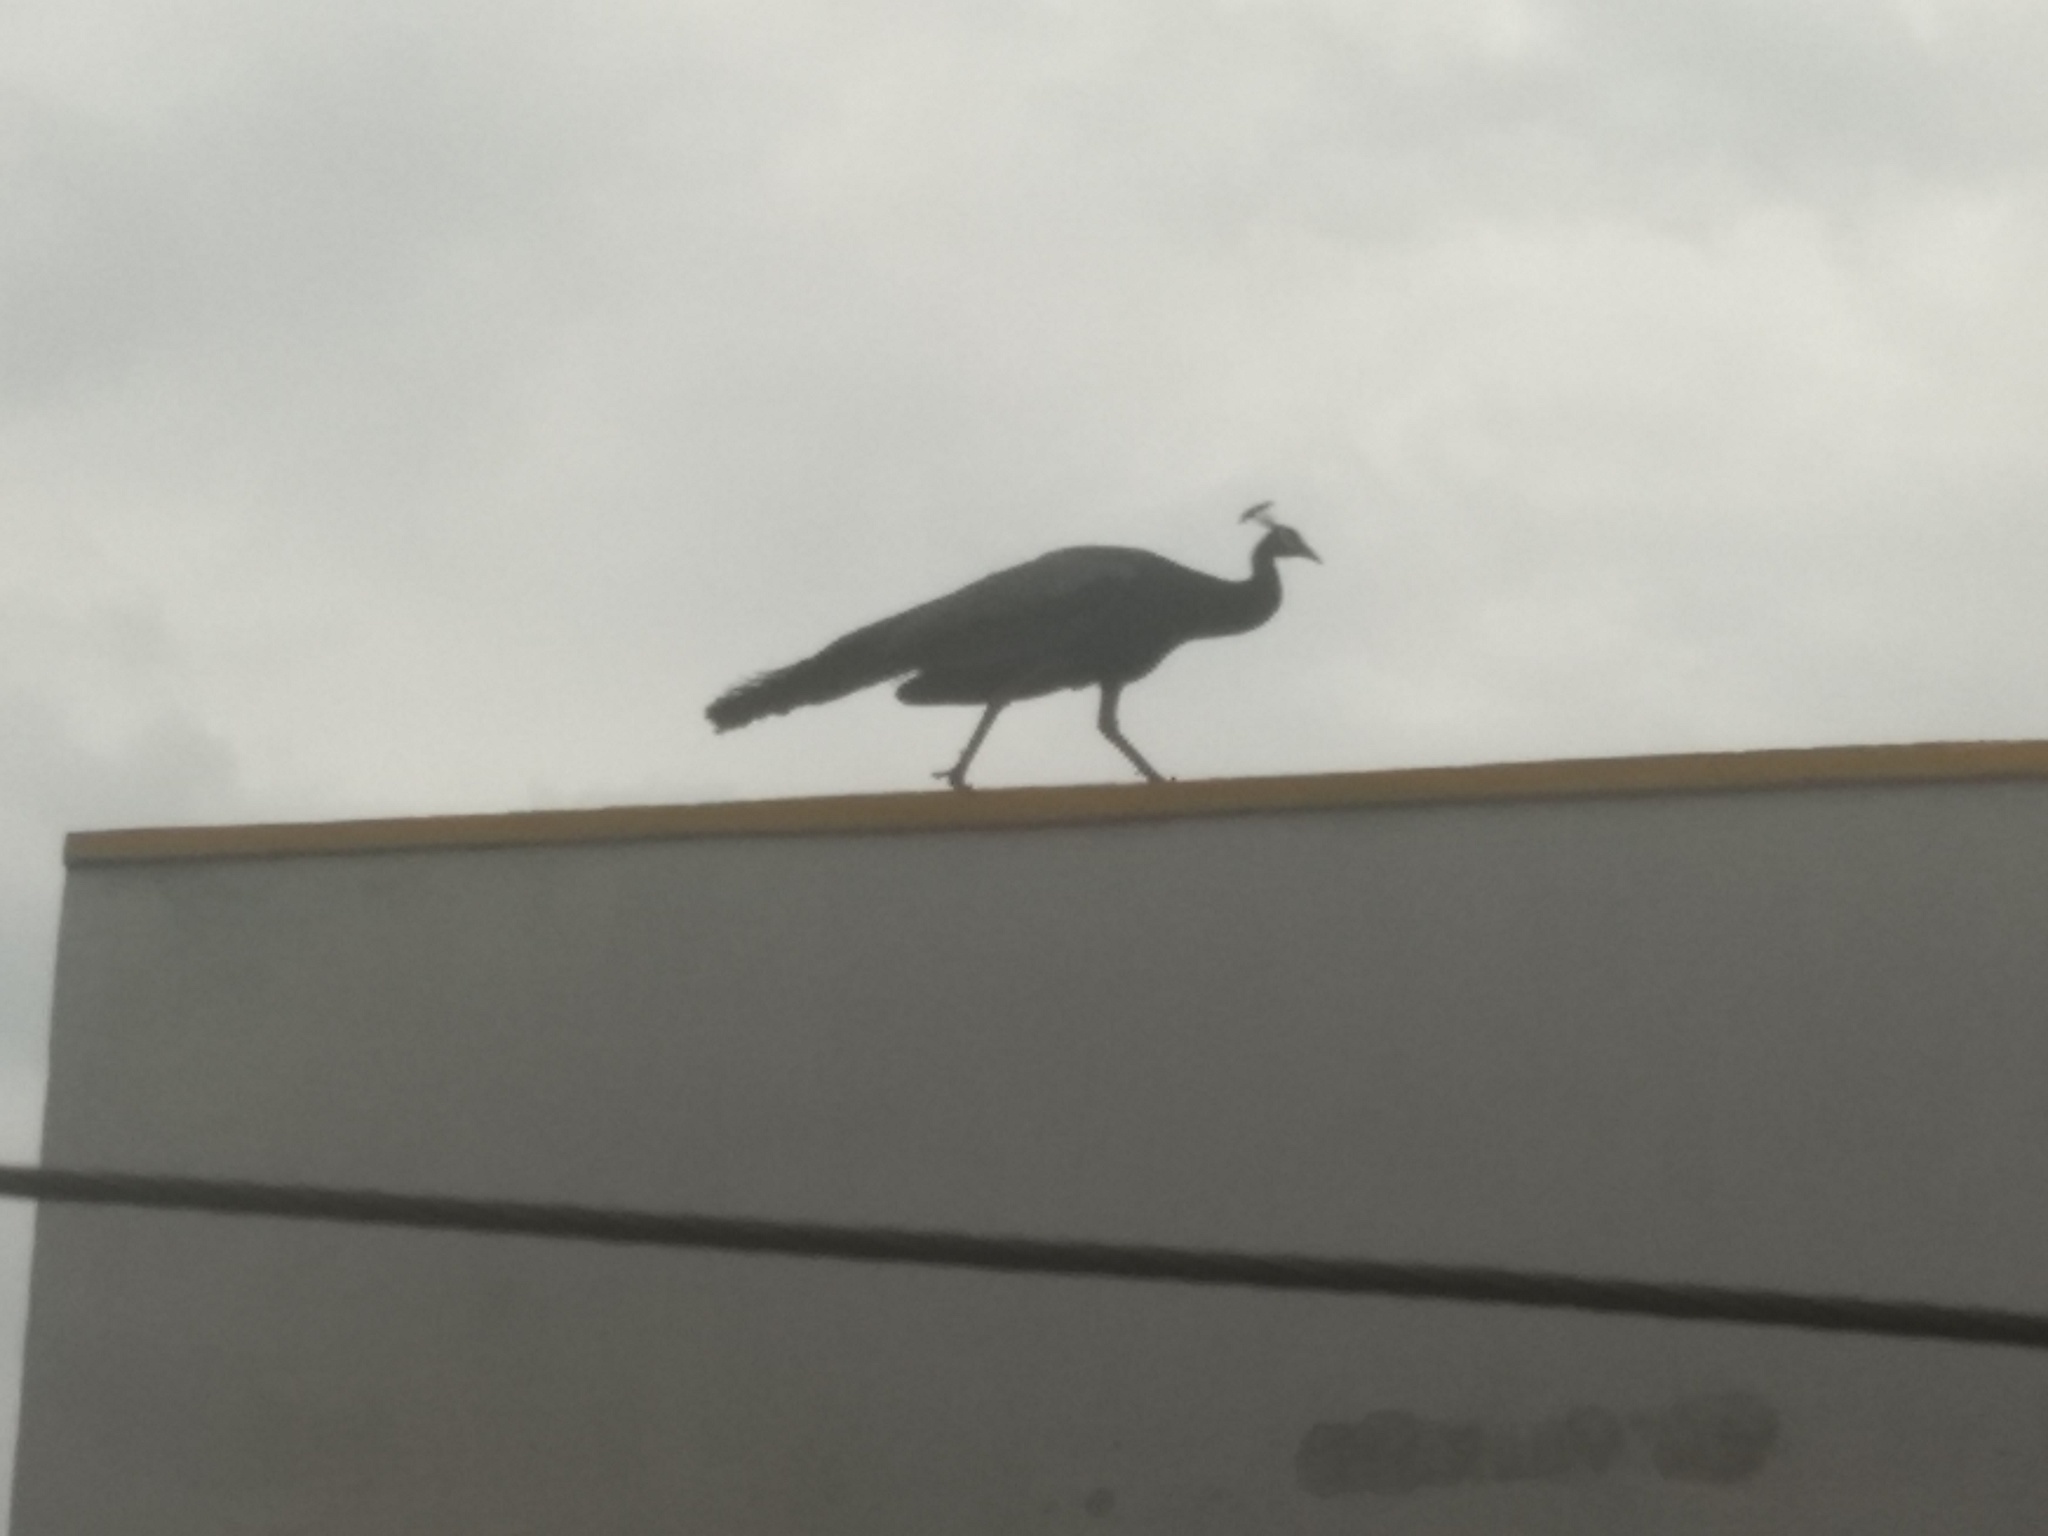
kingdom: Animalia
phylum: Chordata
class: Aves
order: Galliformes
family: Phasianidae
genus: Pavo
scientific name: Pavo cristatus
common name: Indian peafowl
